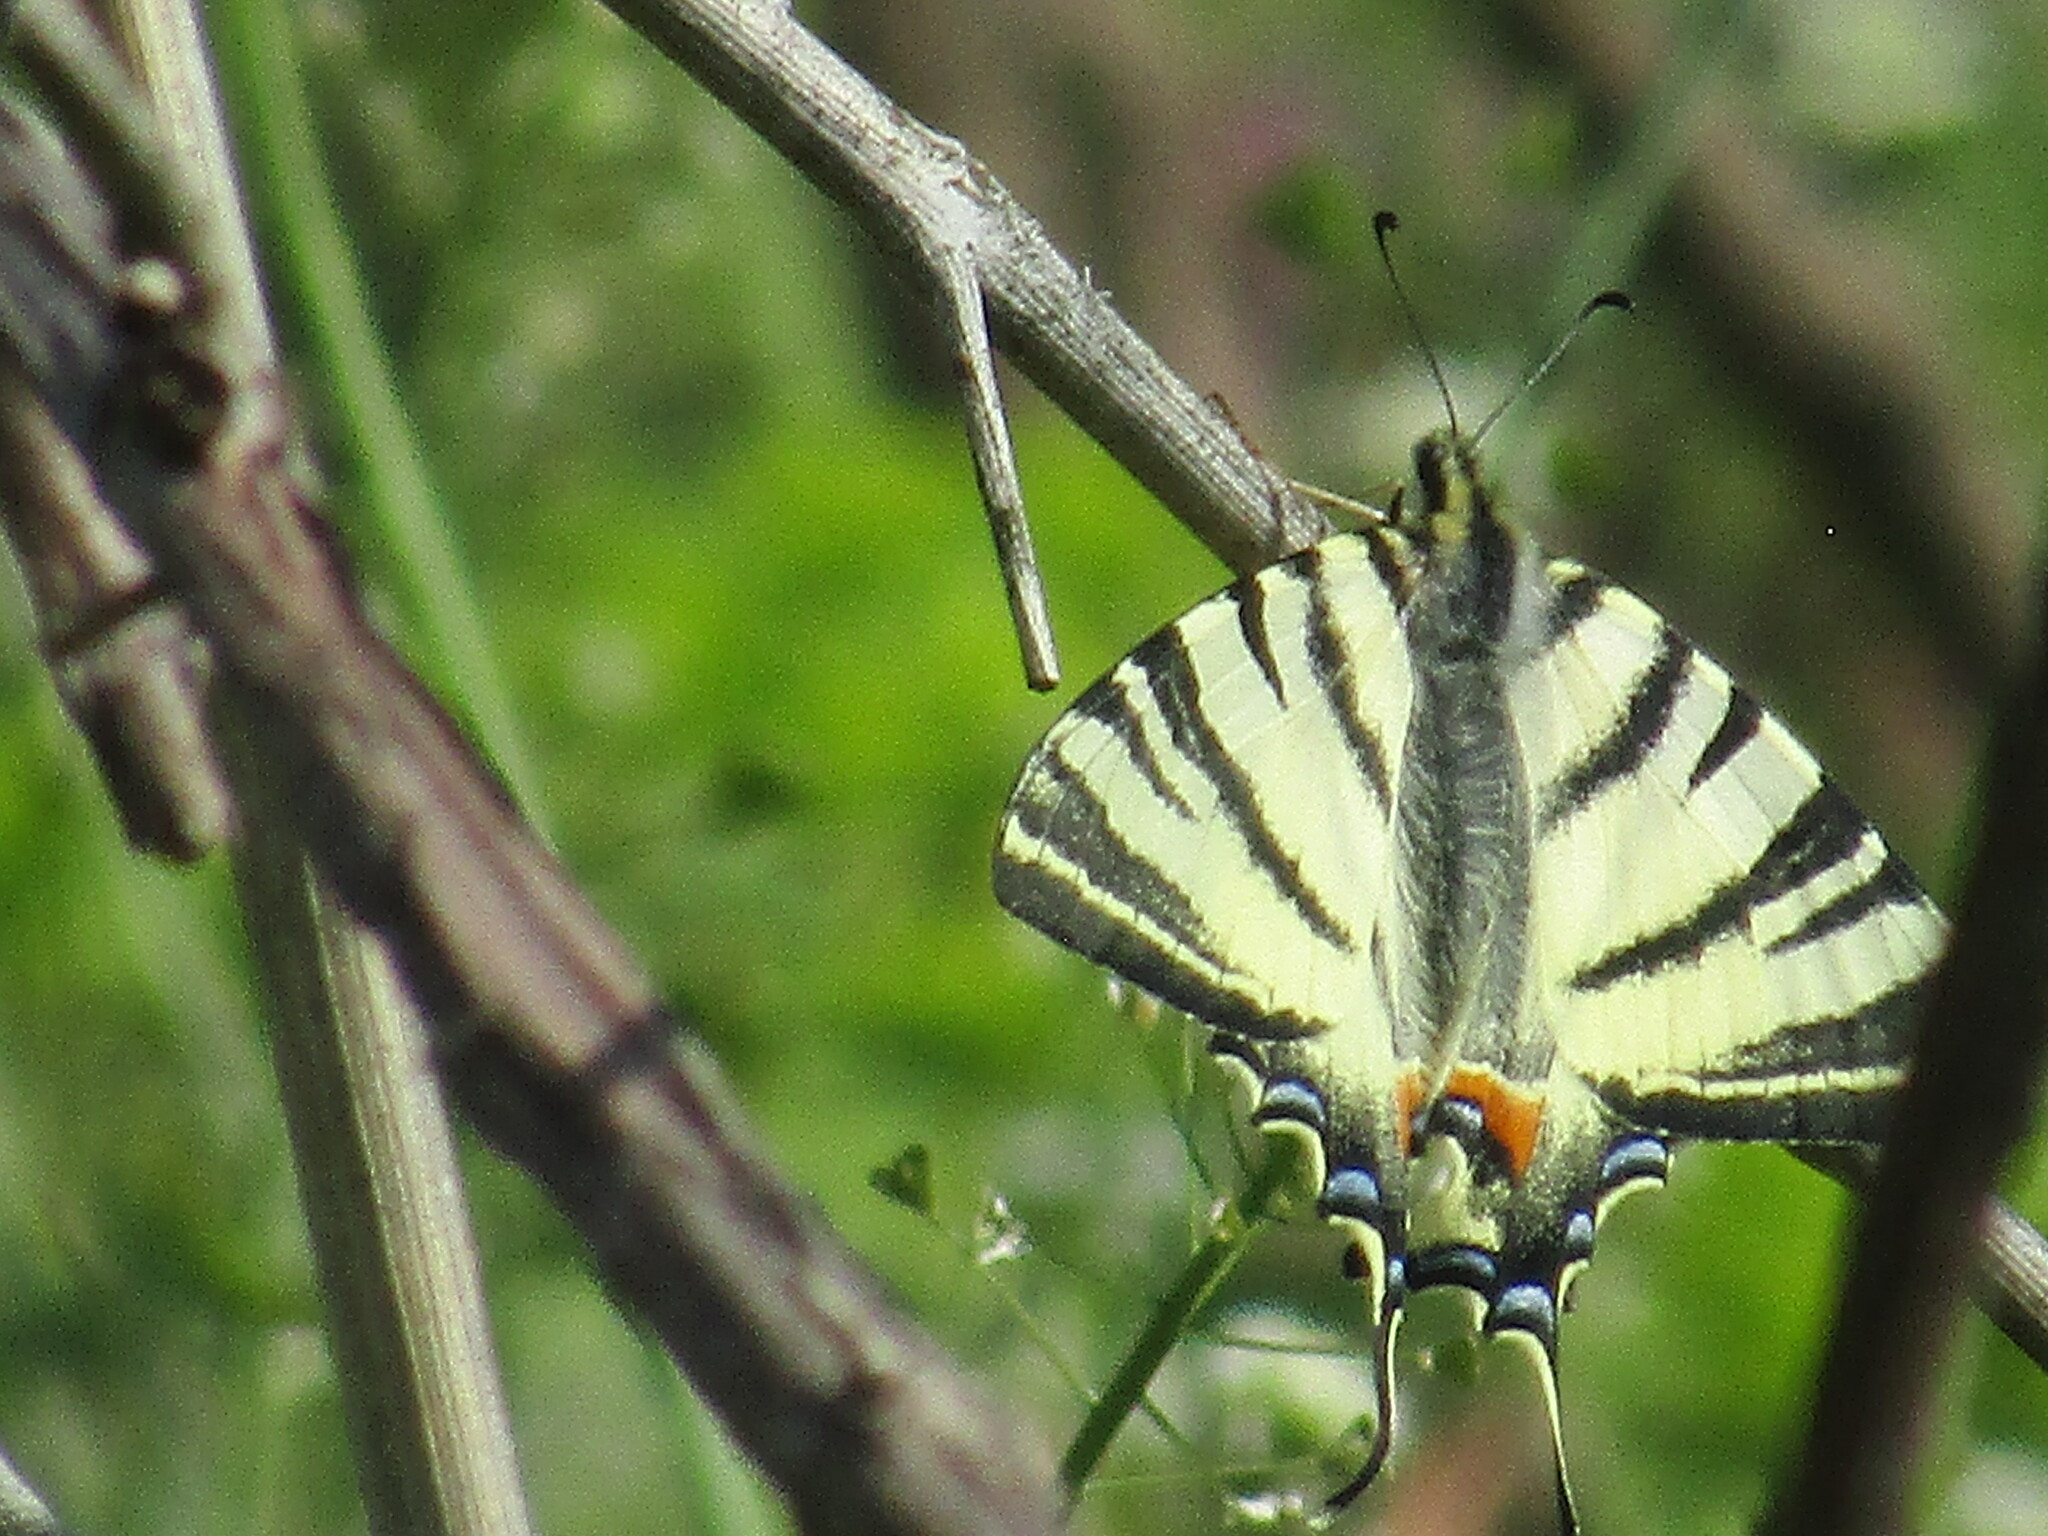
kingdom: Animalia
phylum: Arthropoda
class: Insecta
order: Lepidoptera
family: Papilionidae
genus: Iphiclides
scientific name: Iphiclides podalirius
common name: Scarce swallowtail
